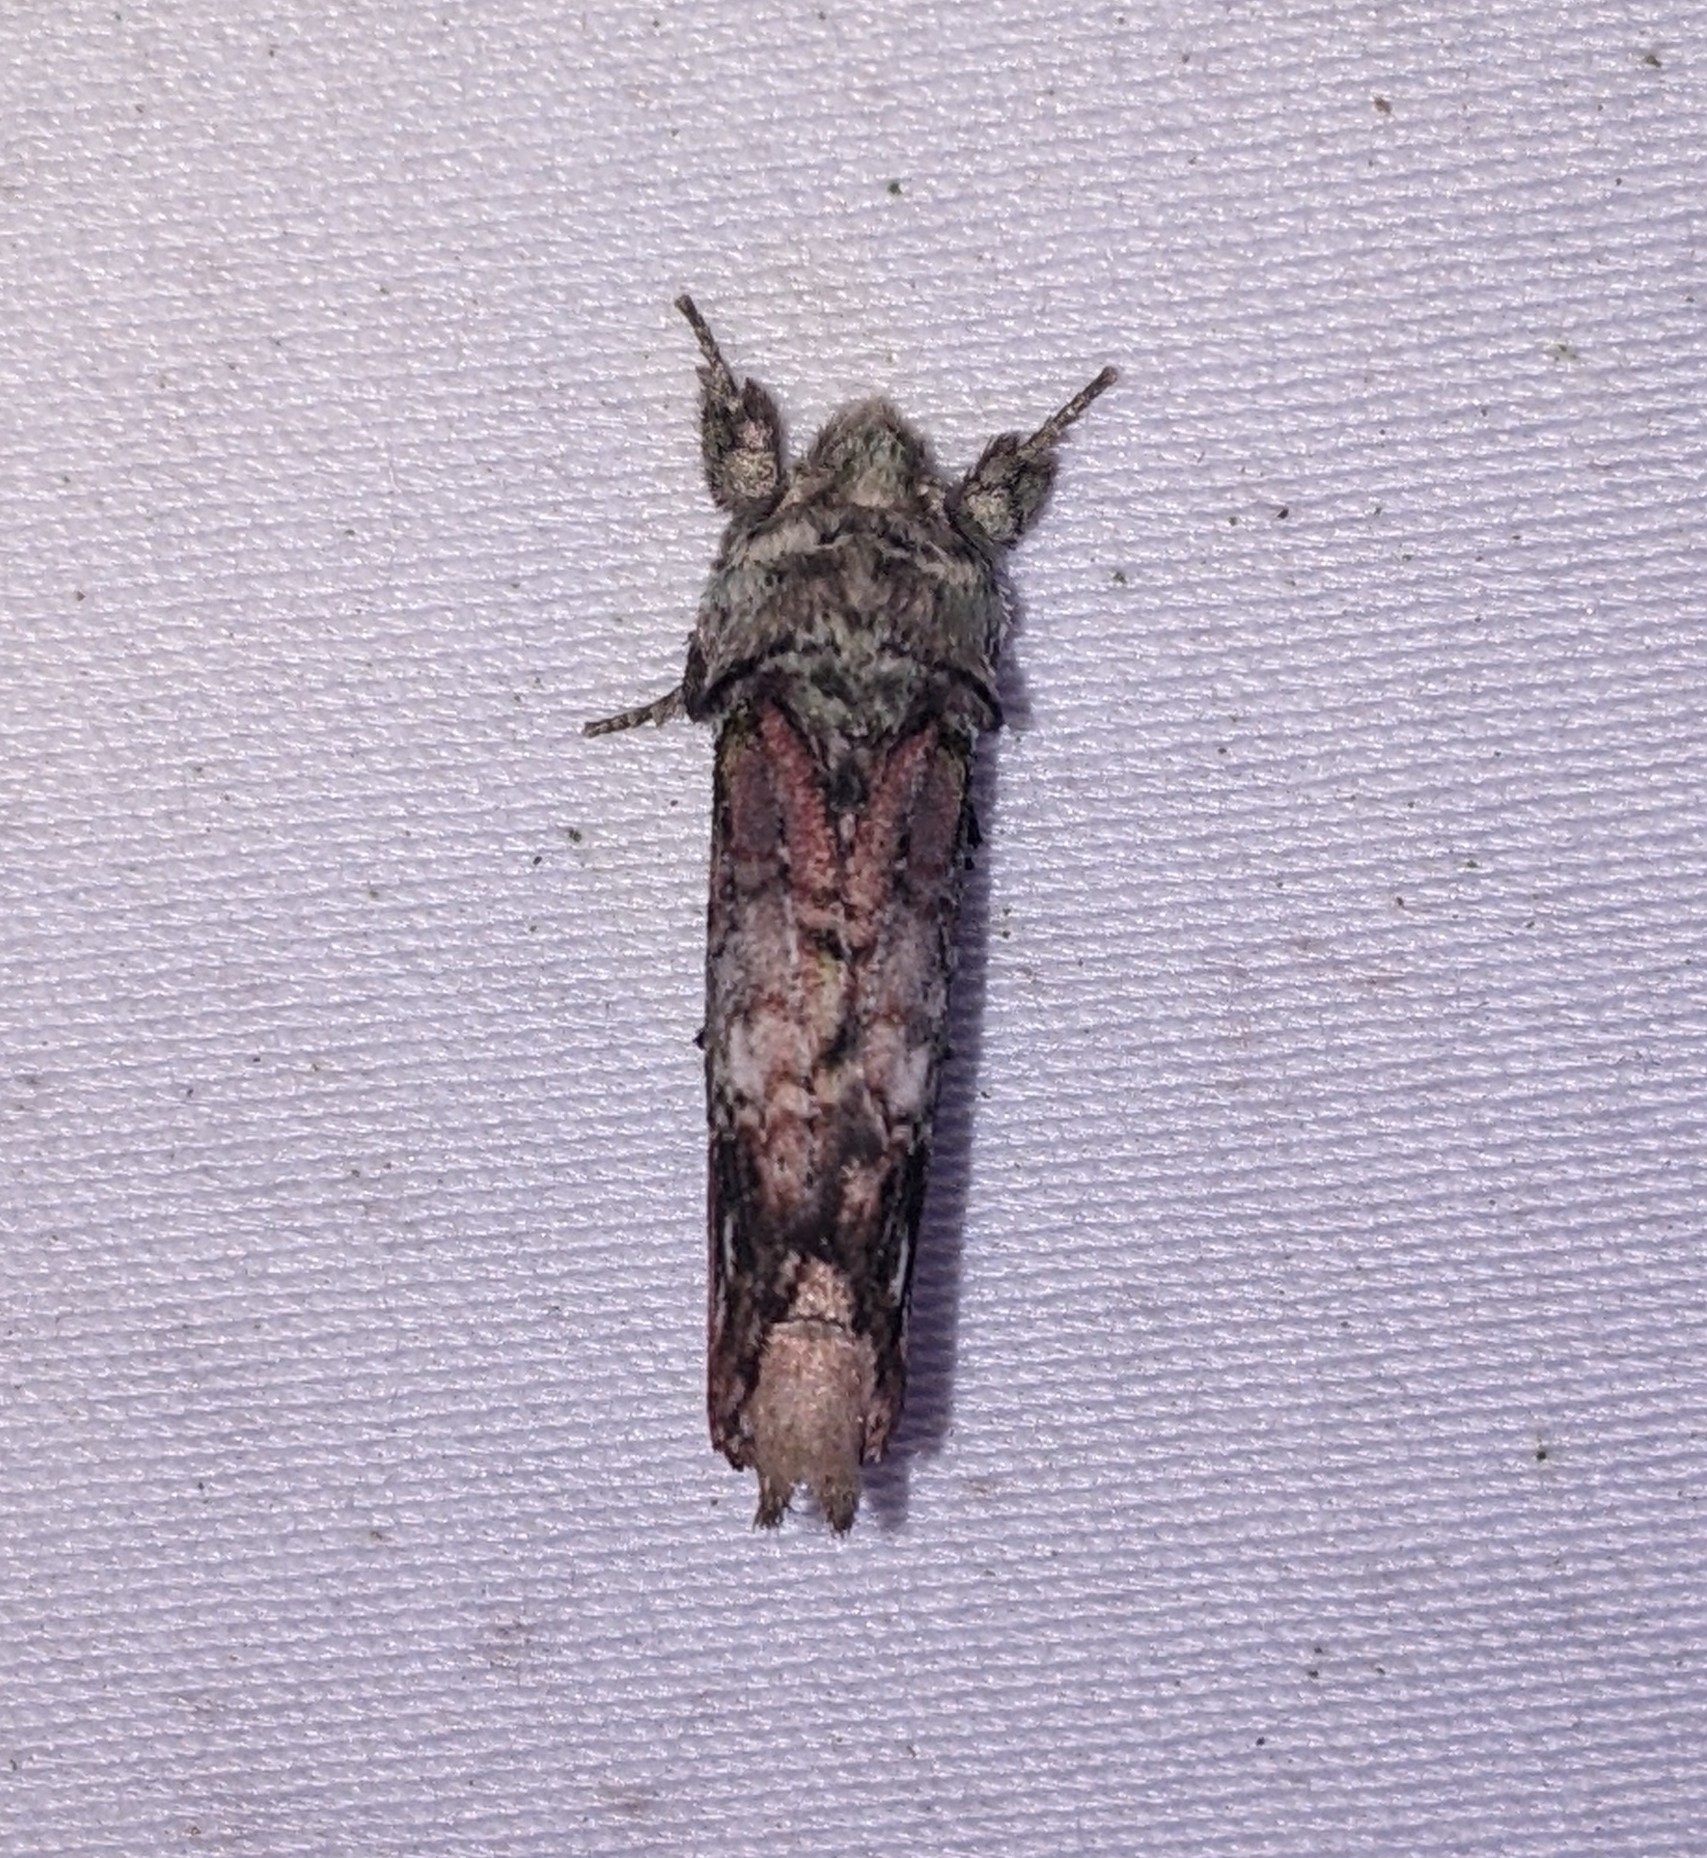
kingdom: Animalia
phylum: Arthropoda
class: Insecta
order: Lepidoptera
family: Notodontidae
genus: Schizura
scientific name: Schizura
